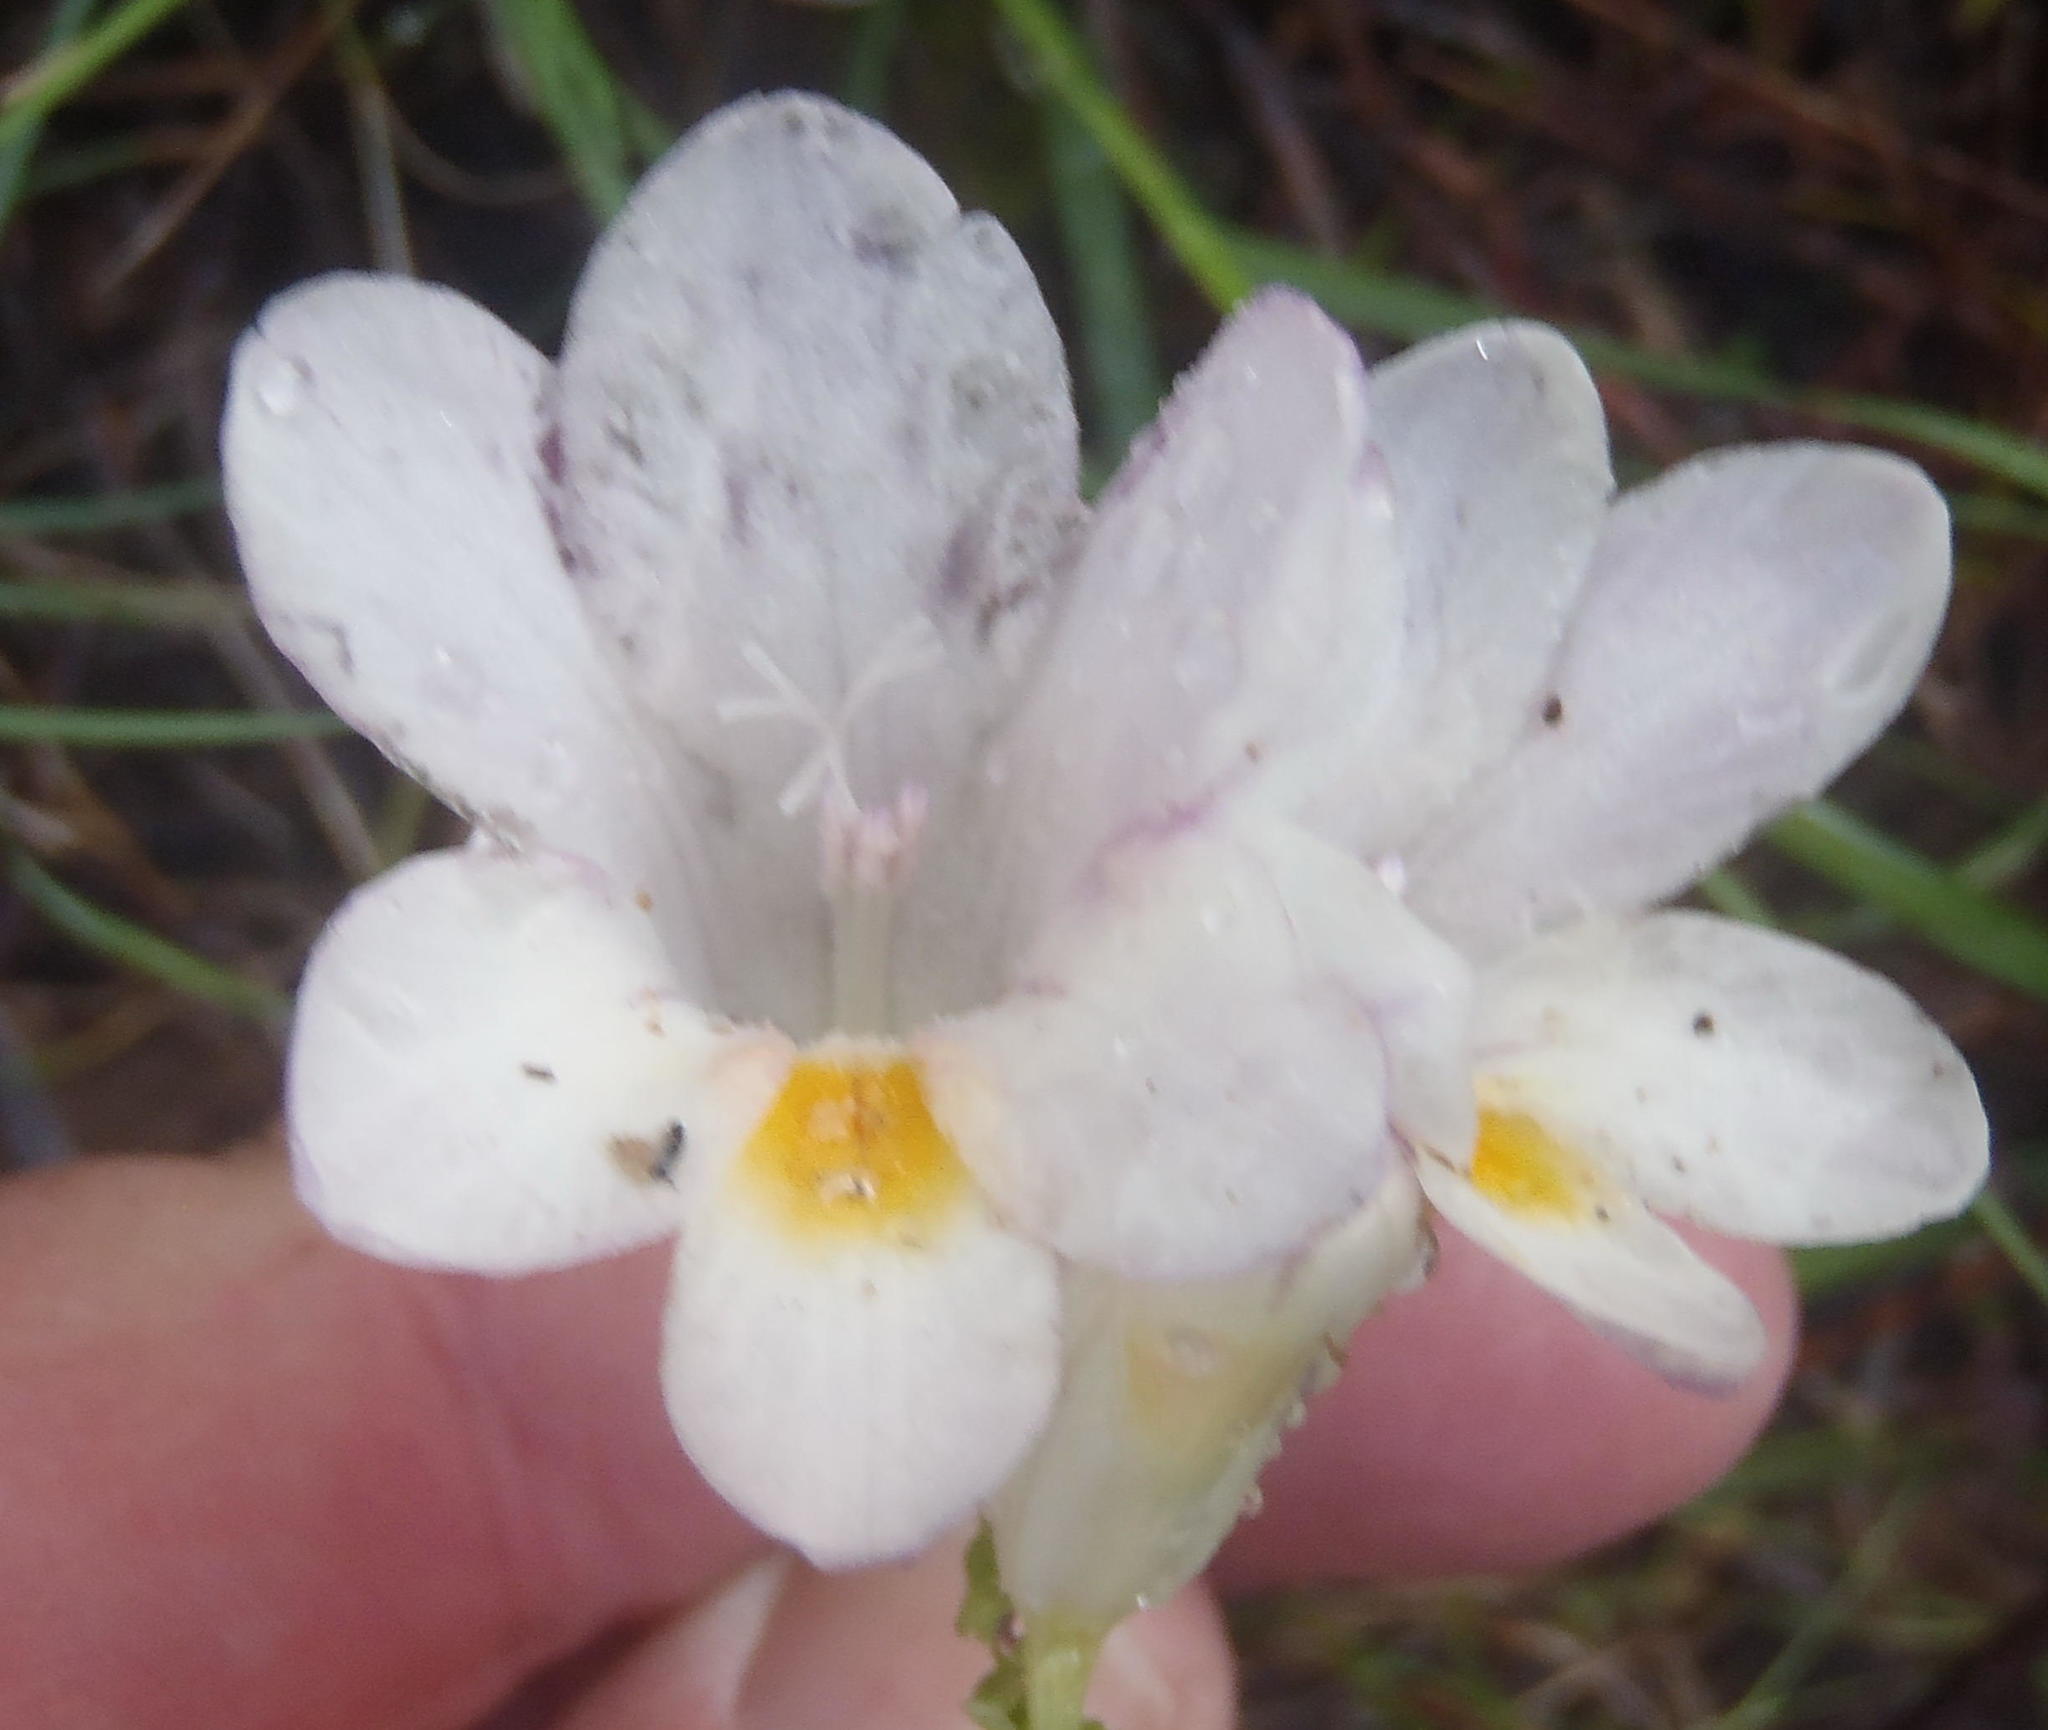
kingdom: Plantae
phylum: Tracheophyta
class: Liliopsida
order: Asparagales
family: Iridaceae
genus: Freesia
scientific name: Freesia leichtlinii
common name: Freesia
